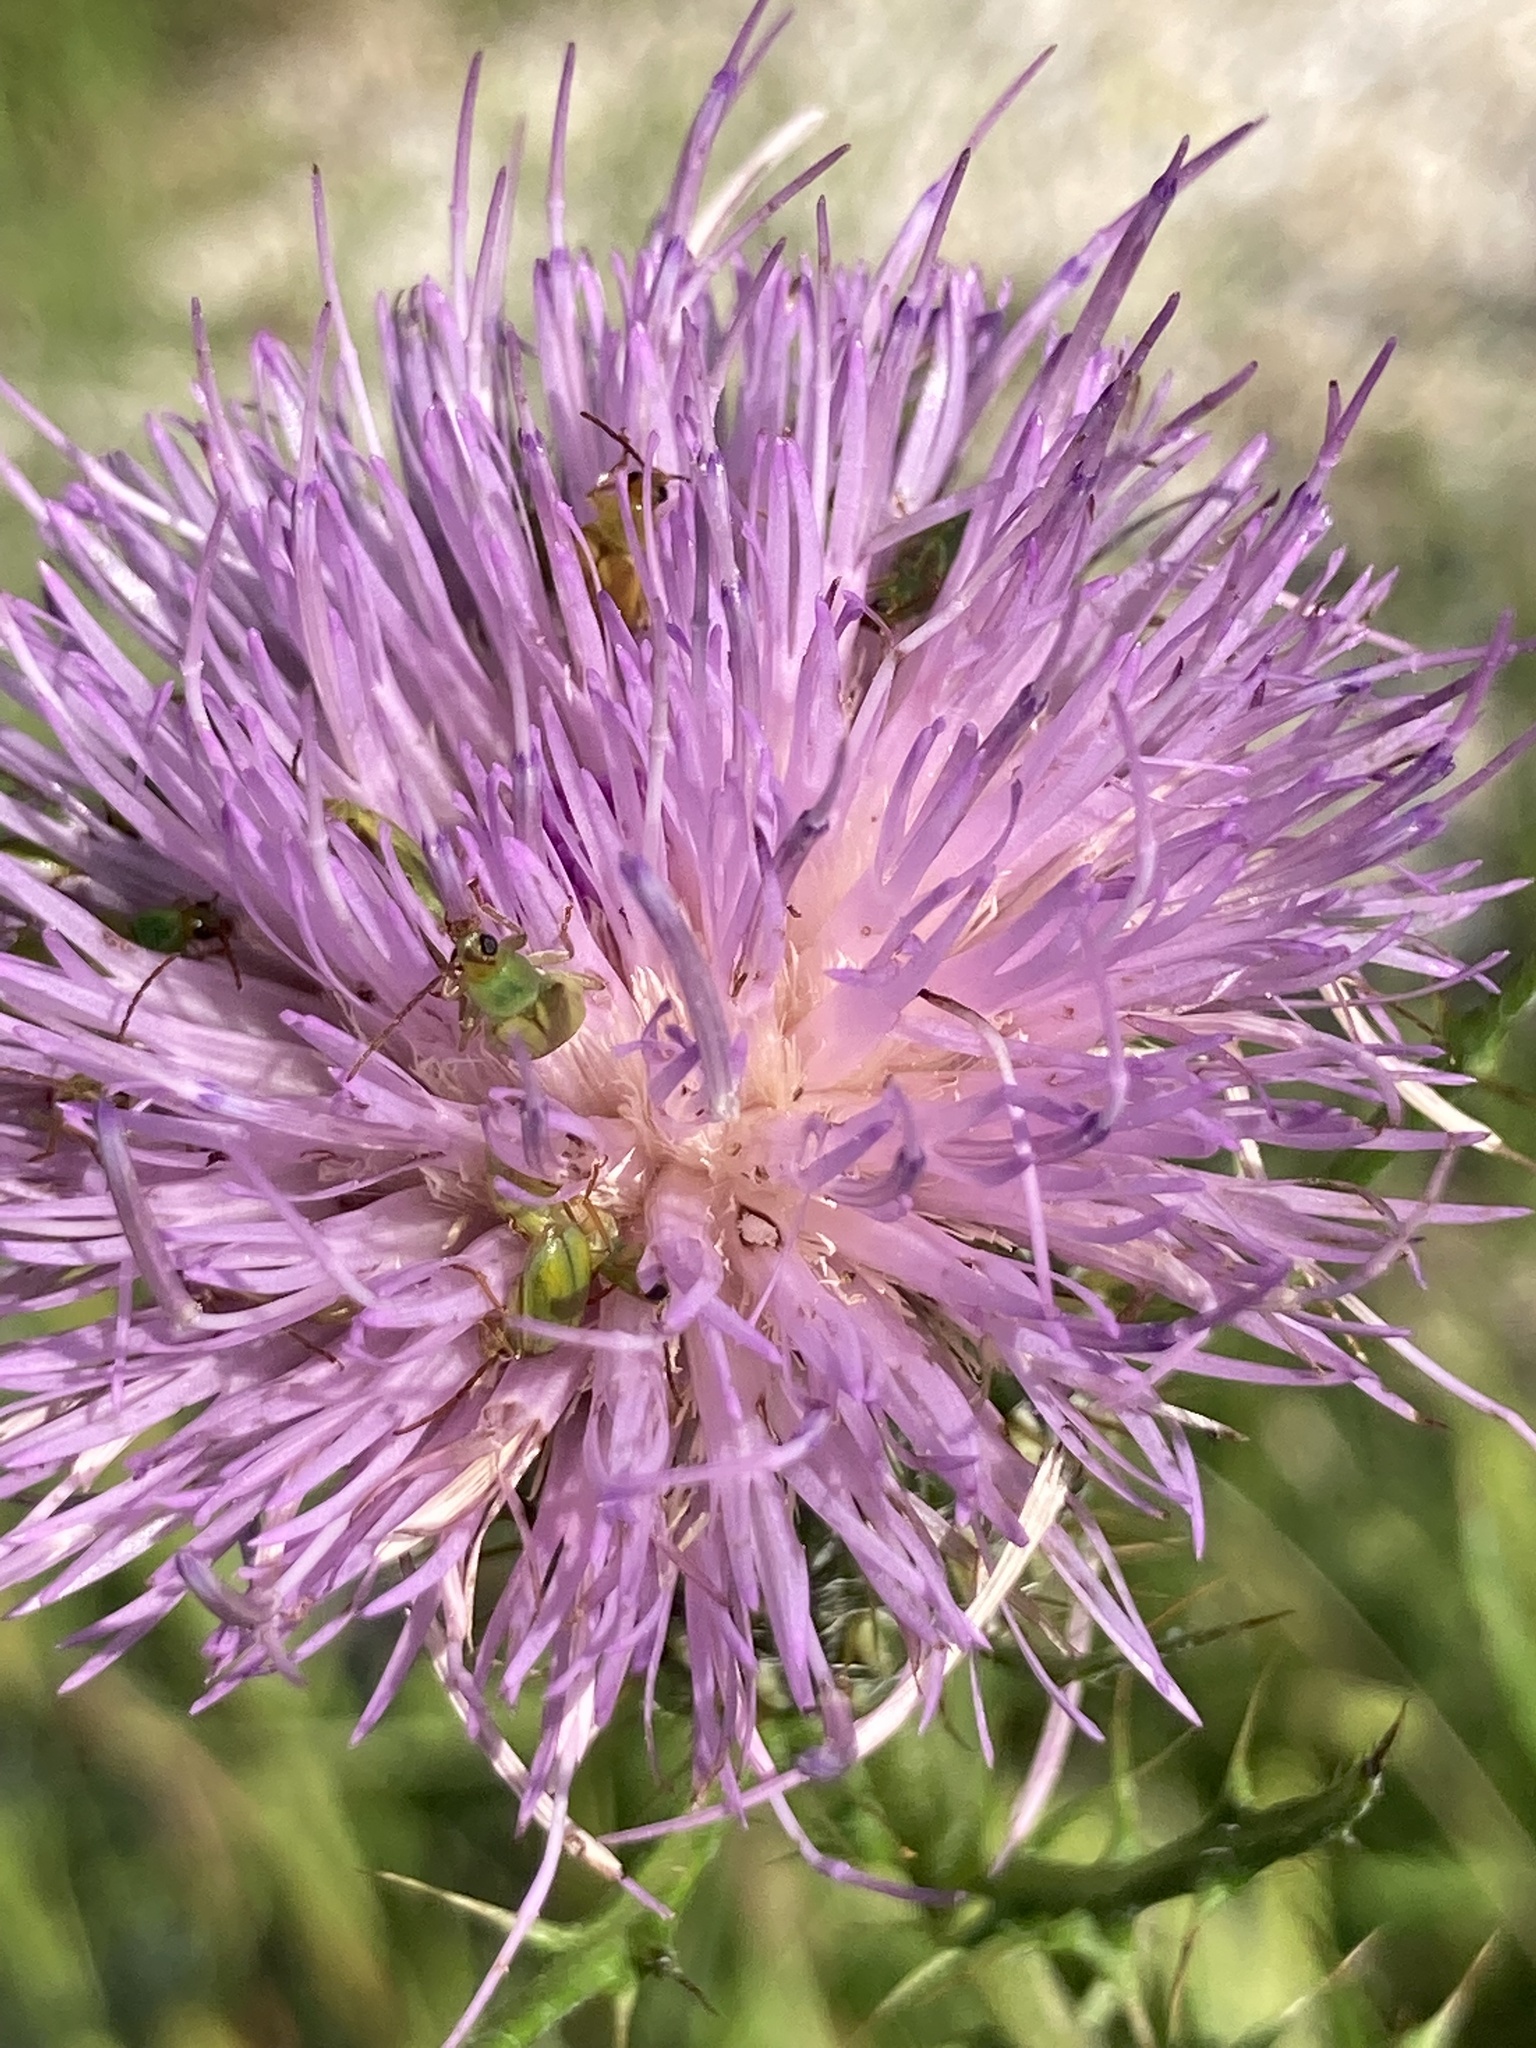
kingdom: Animalia
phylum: Arthropoda
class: Insecta
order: Coleoptera
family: Chrysomelidae
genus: Diabrotica
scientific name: Diabrotica barberi
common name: Northern corn rootworm
